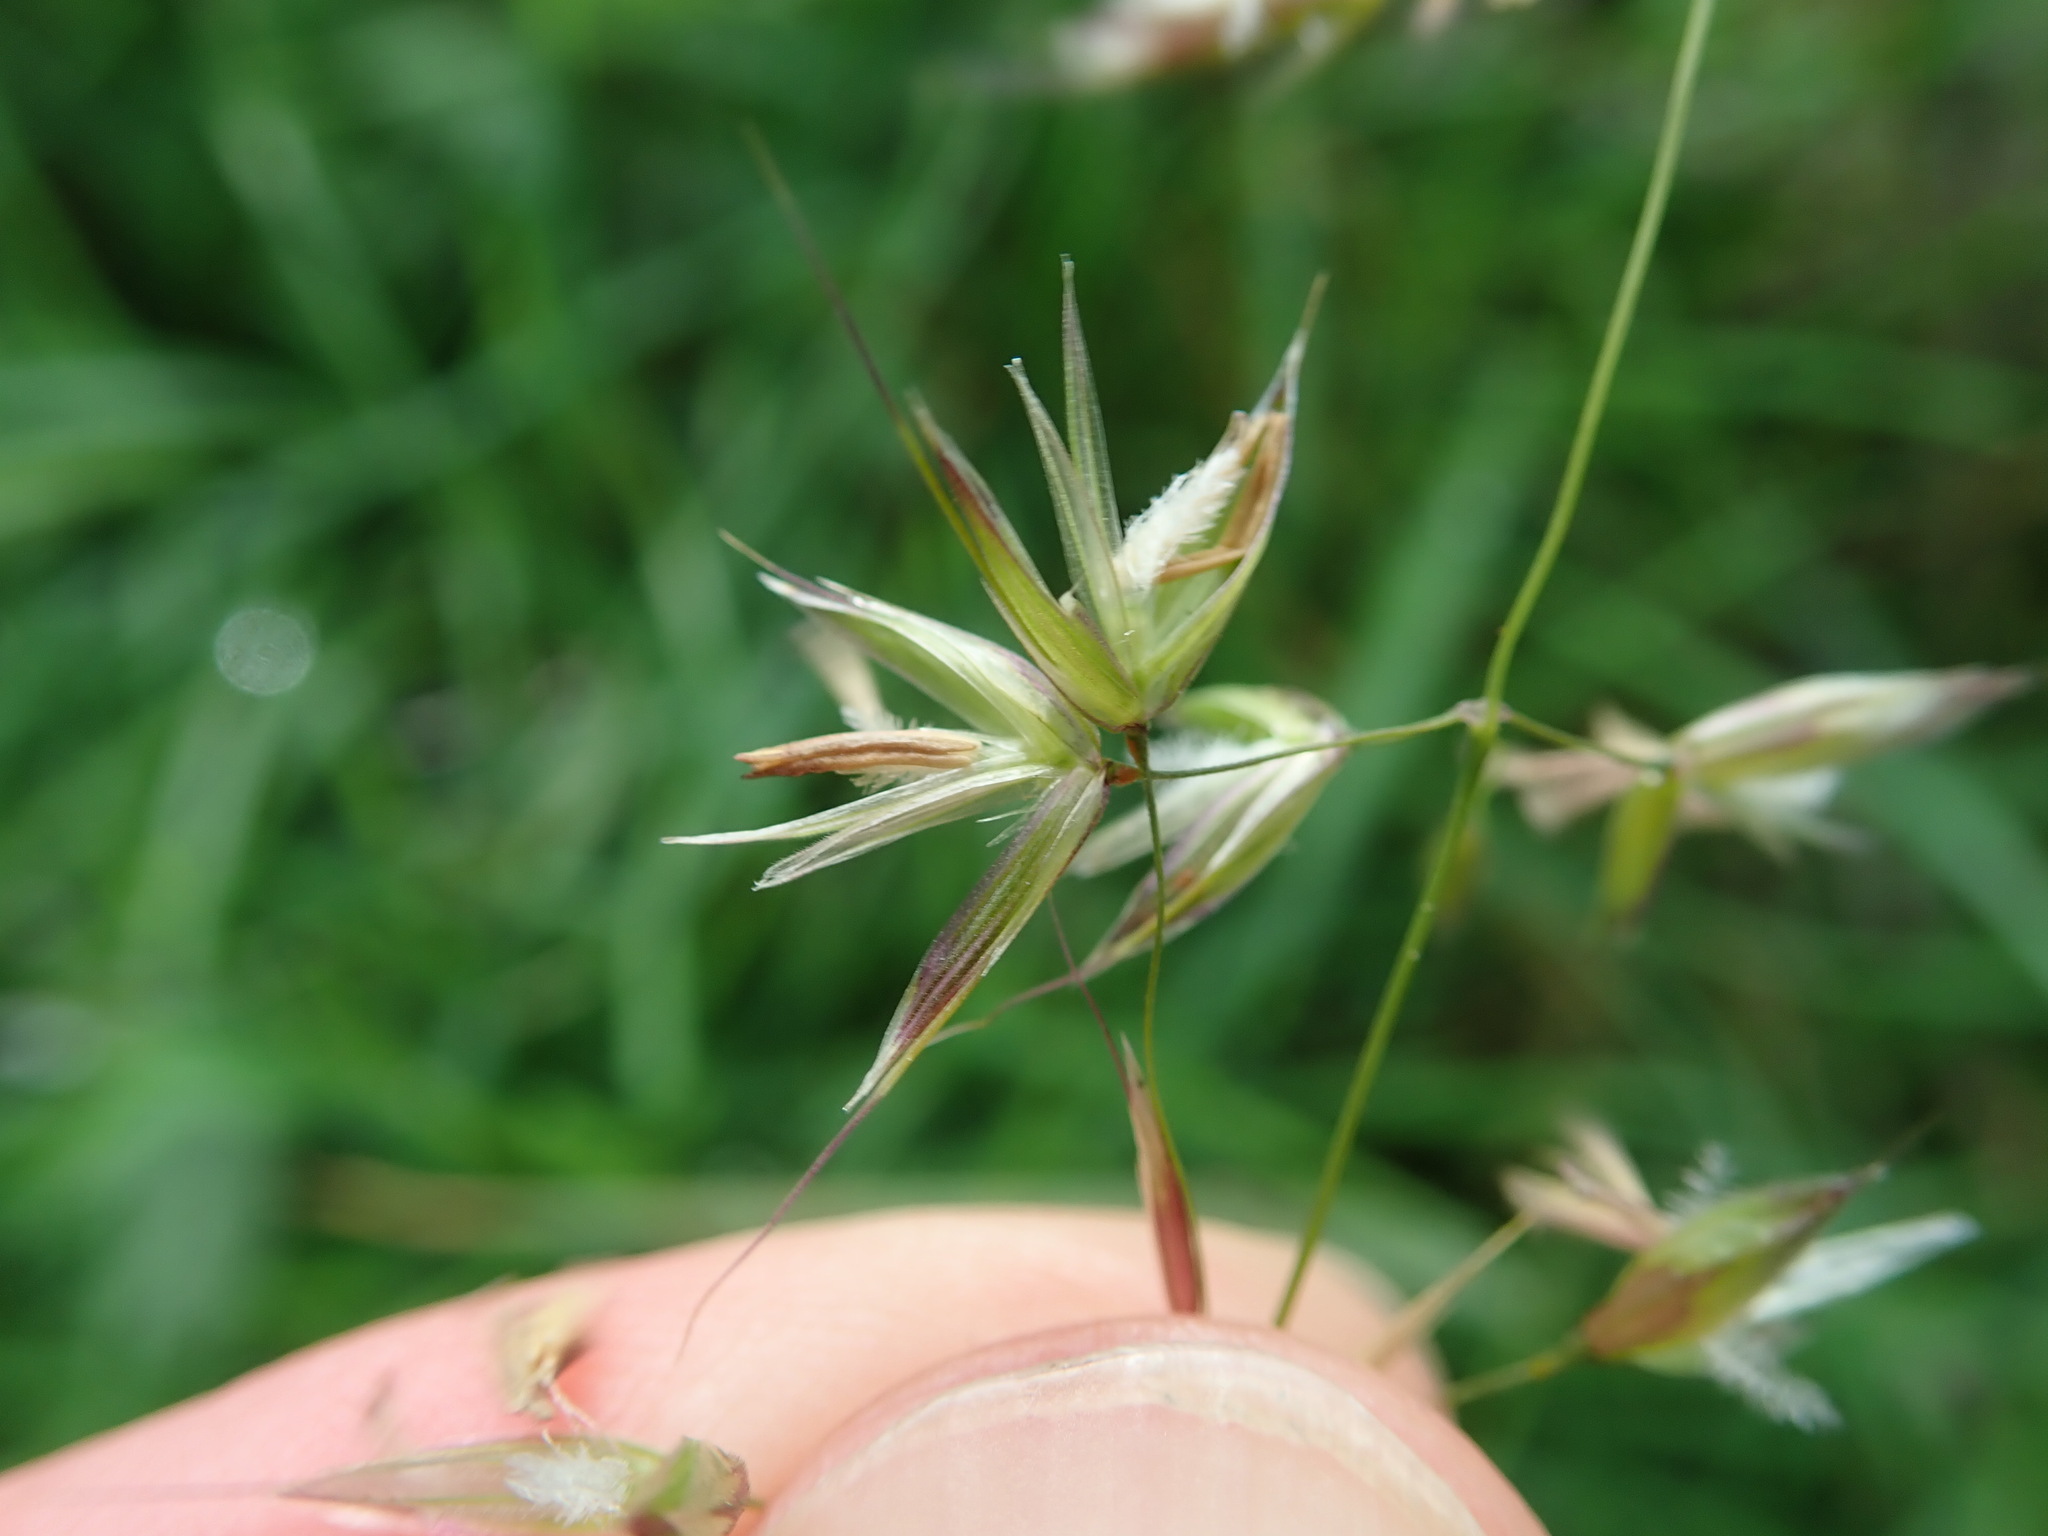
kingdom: Plantae
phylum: Tracheophyta
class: Liliopsida
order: Poales
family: Poaceae
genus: Arrhenatherum
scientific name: Arrhenatherum elatius
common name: Tall oatgrass
